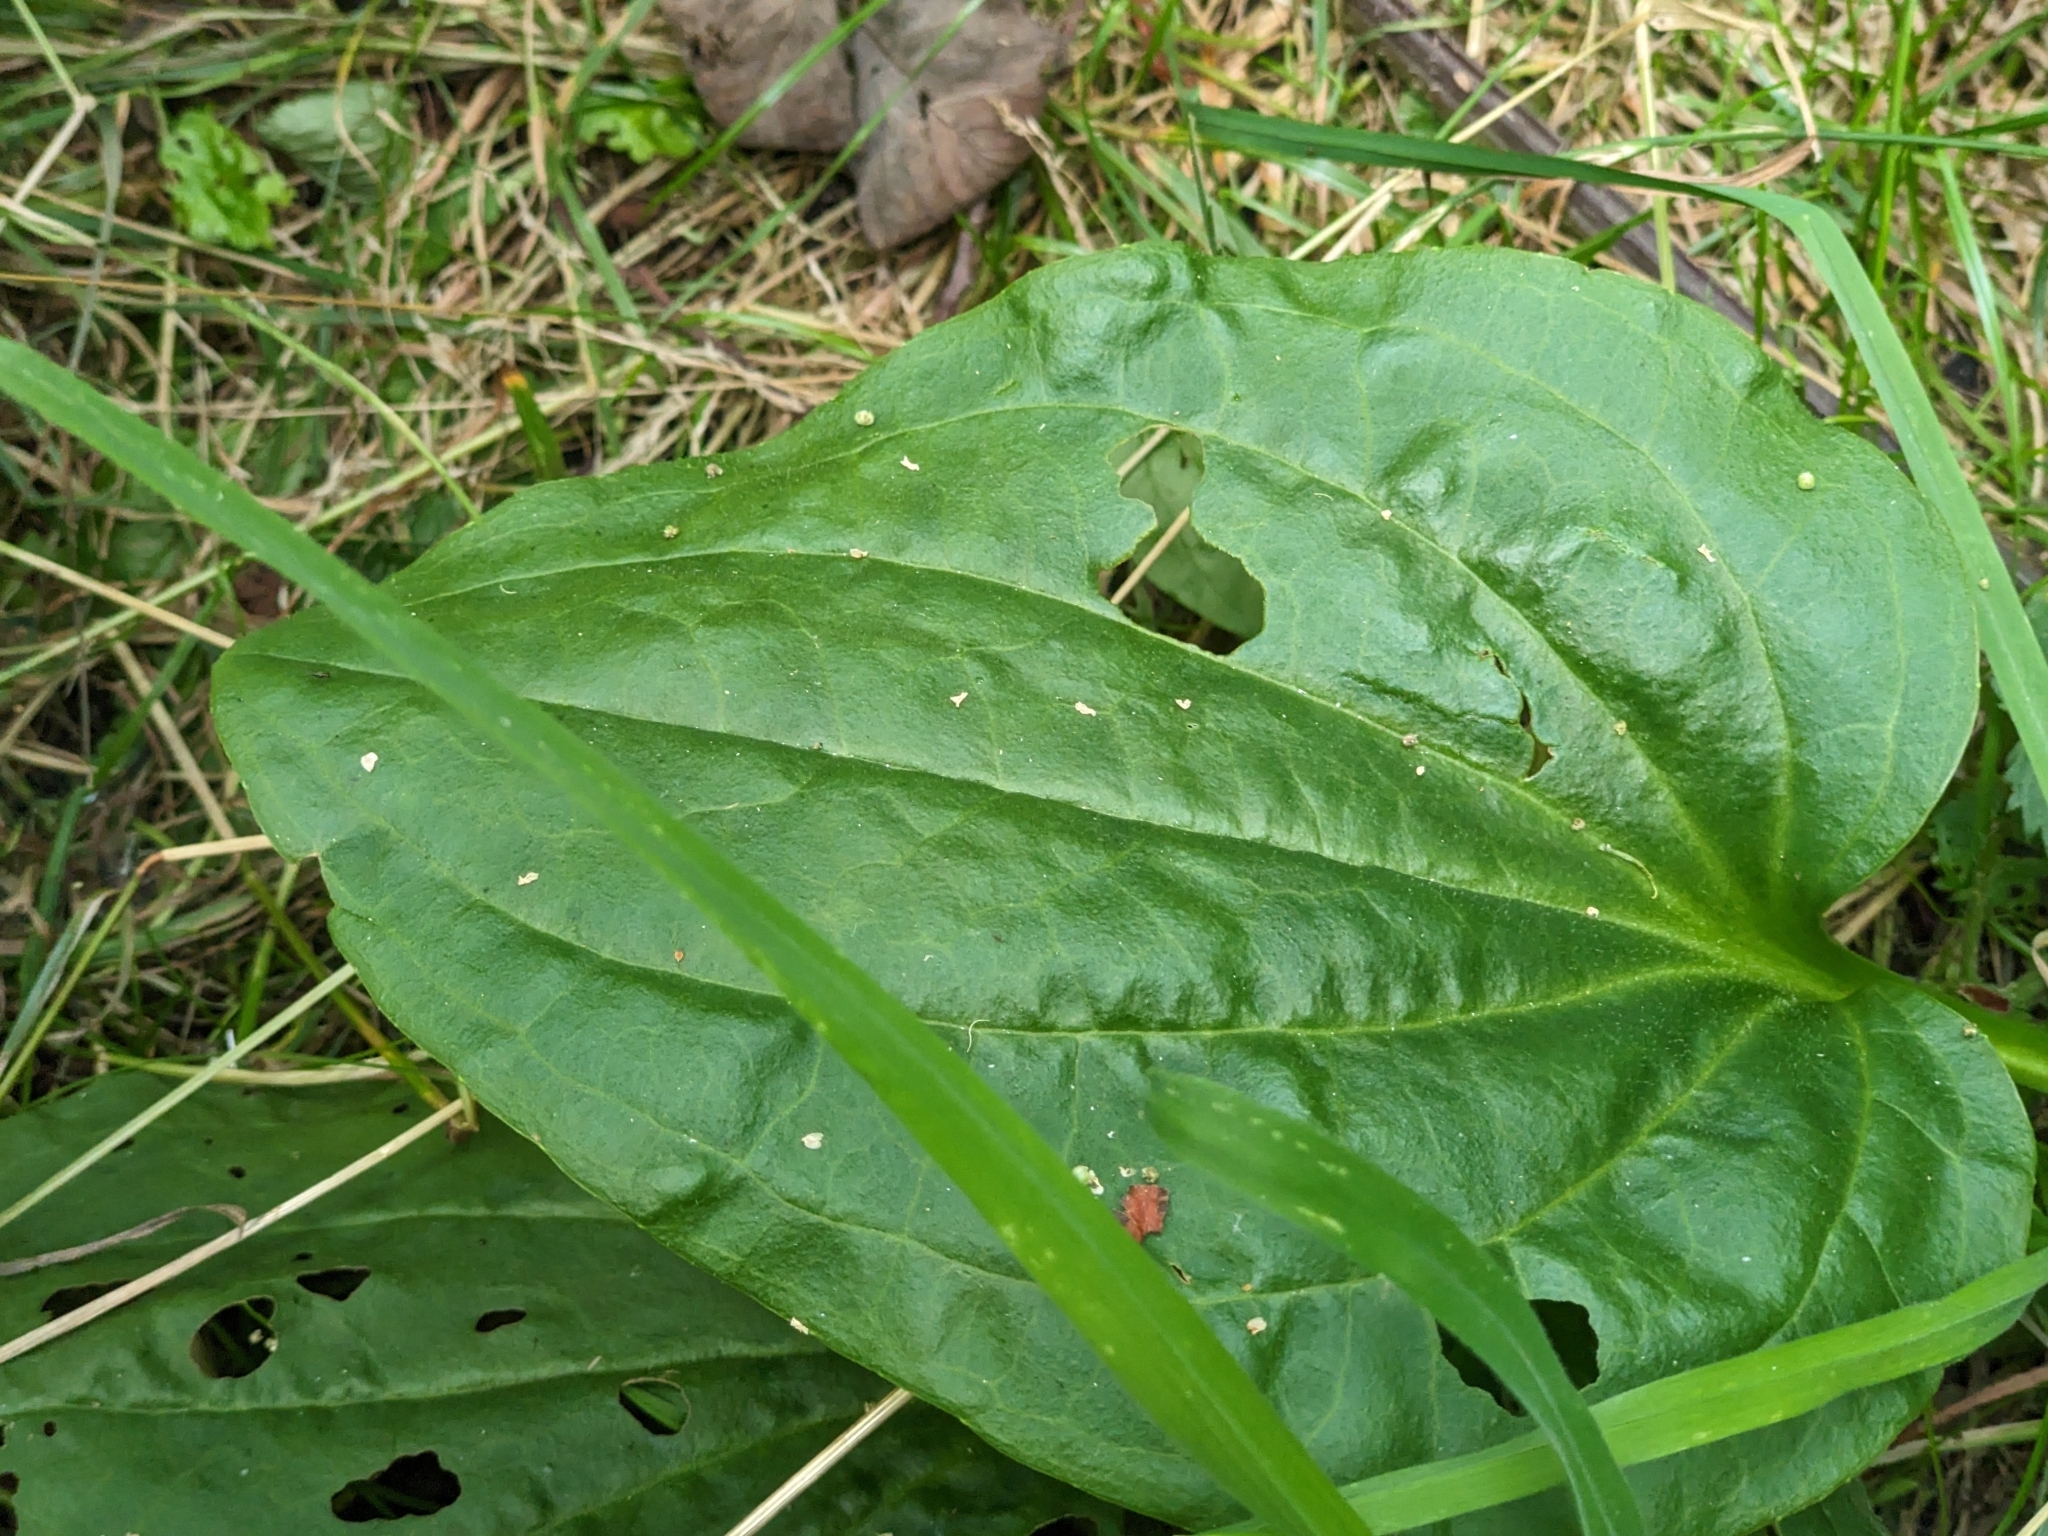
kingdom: Plantae
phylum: Tracheophyta
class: Magnoliopsida
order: Lamiales
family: Plantaginaceae
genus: Plantago
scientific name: Plantago major
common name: Common plantain
